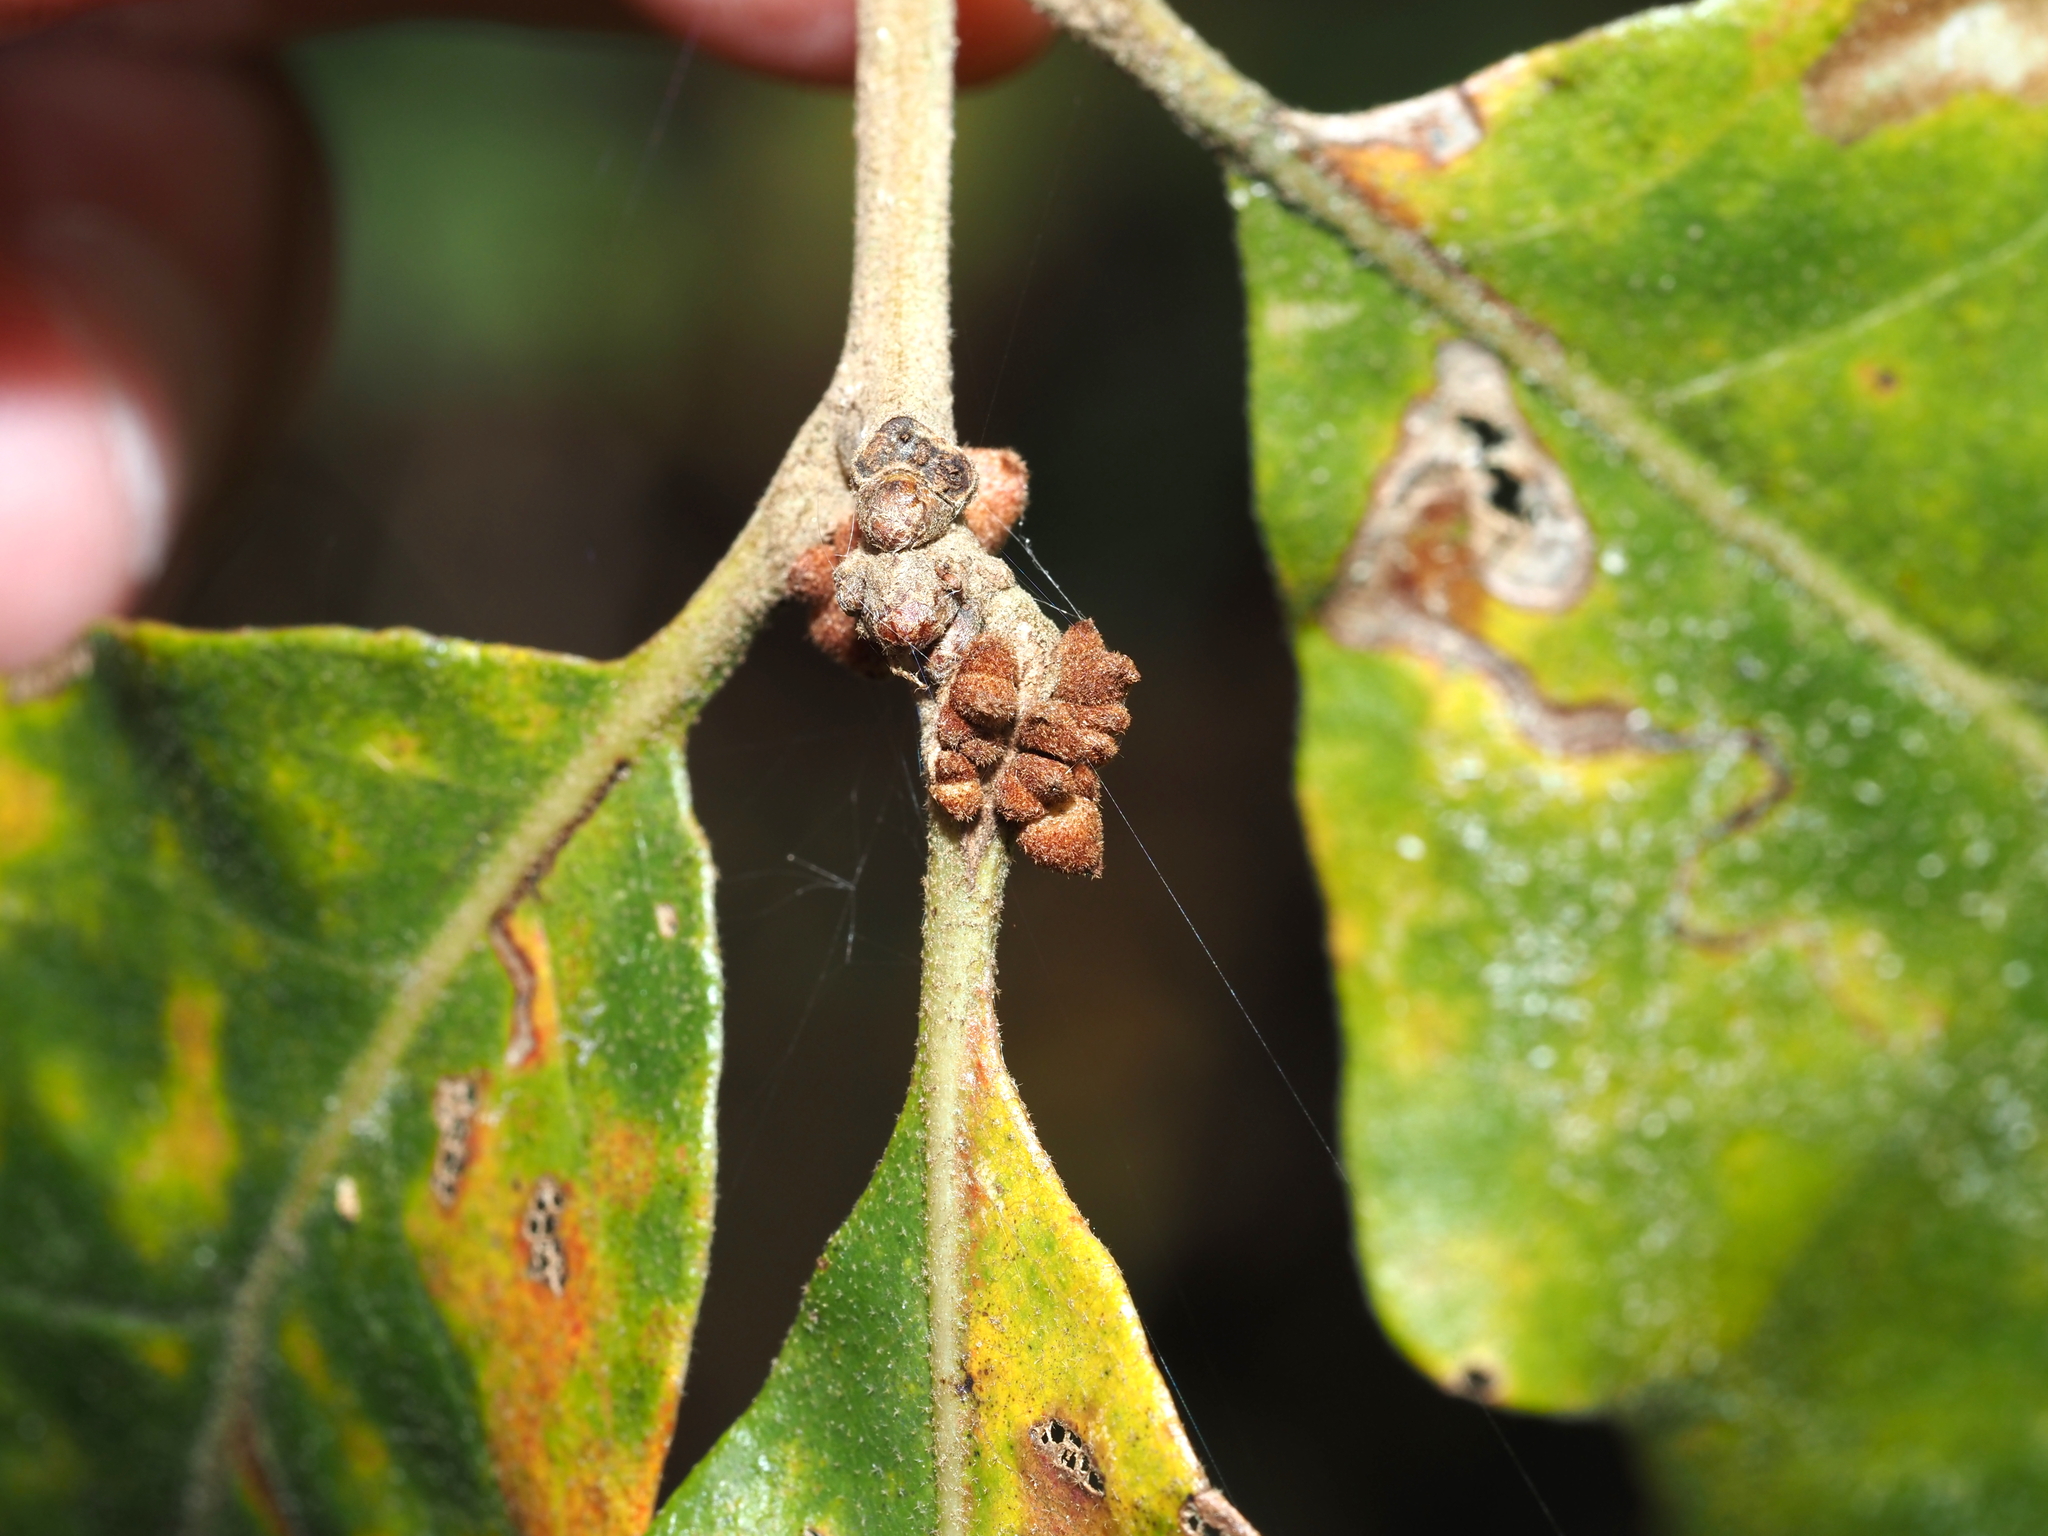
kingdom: Animalia
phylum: Arthropoda
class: Insecta
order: Hymenoptera
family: Cynipidae
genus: Andricus
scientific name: Andricus
